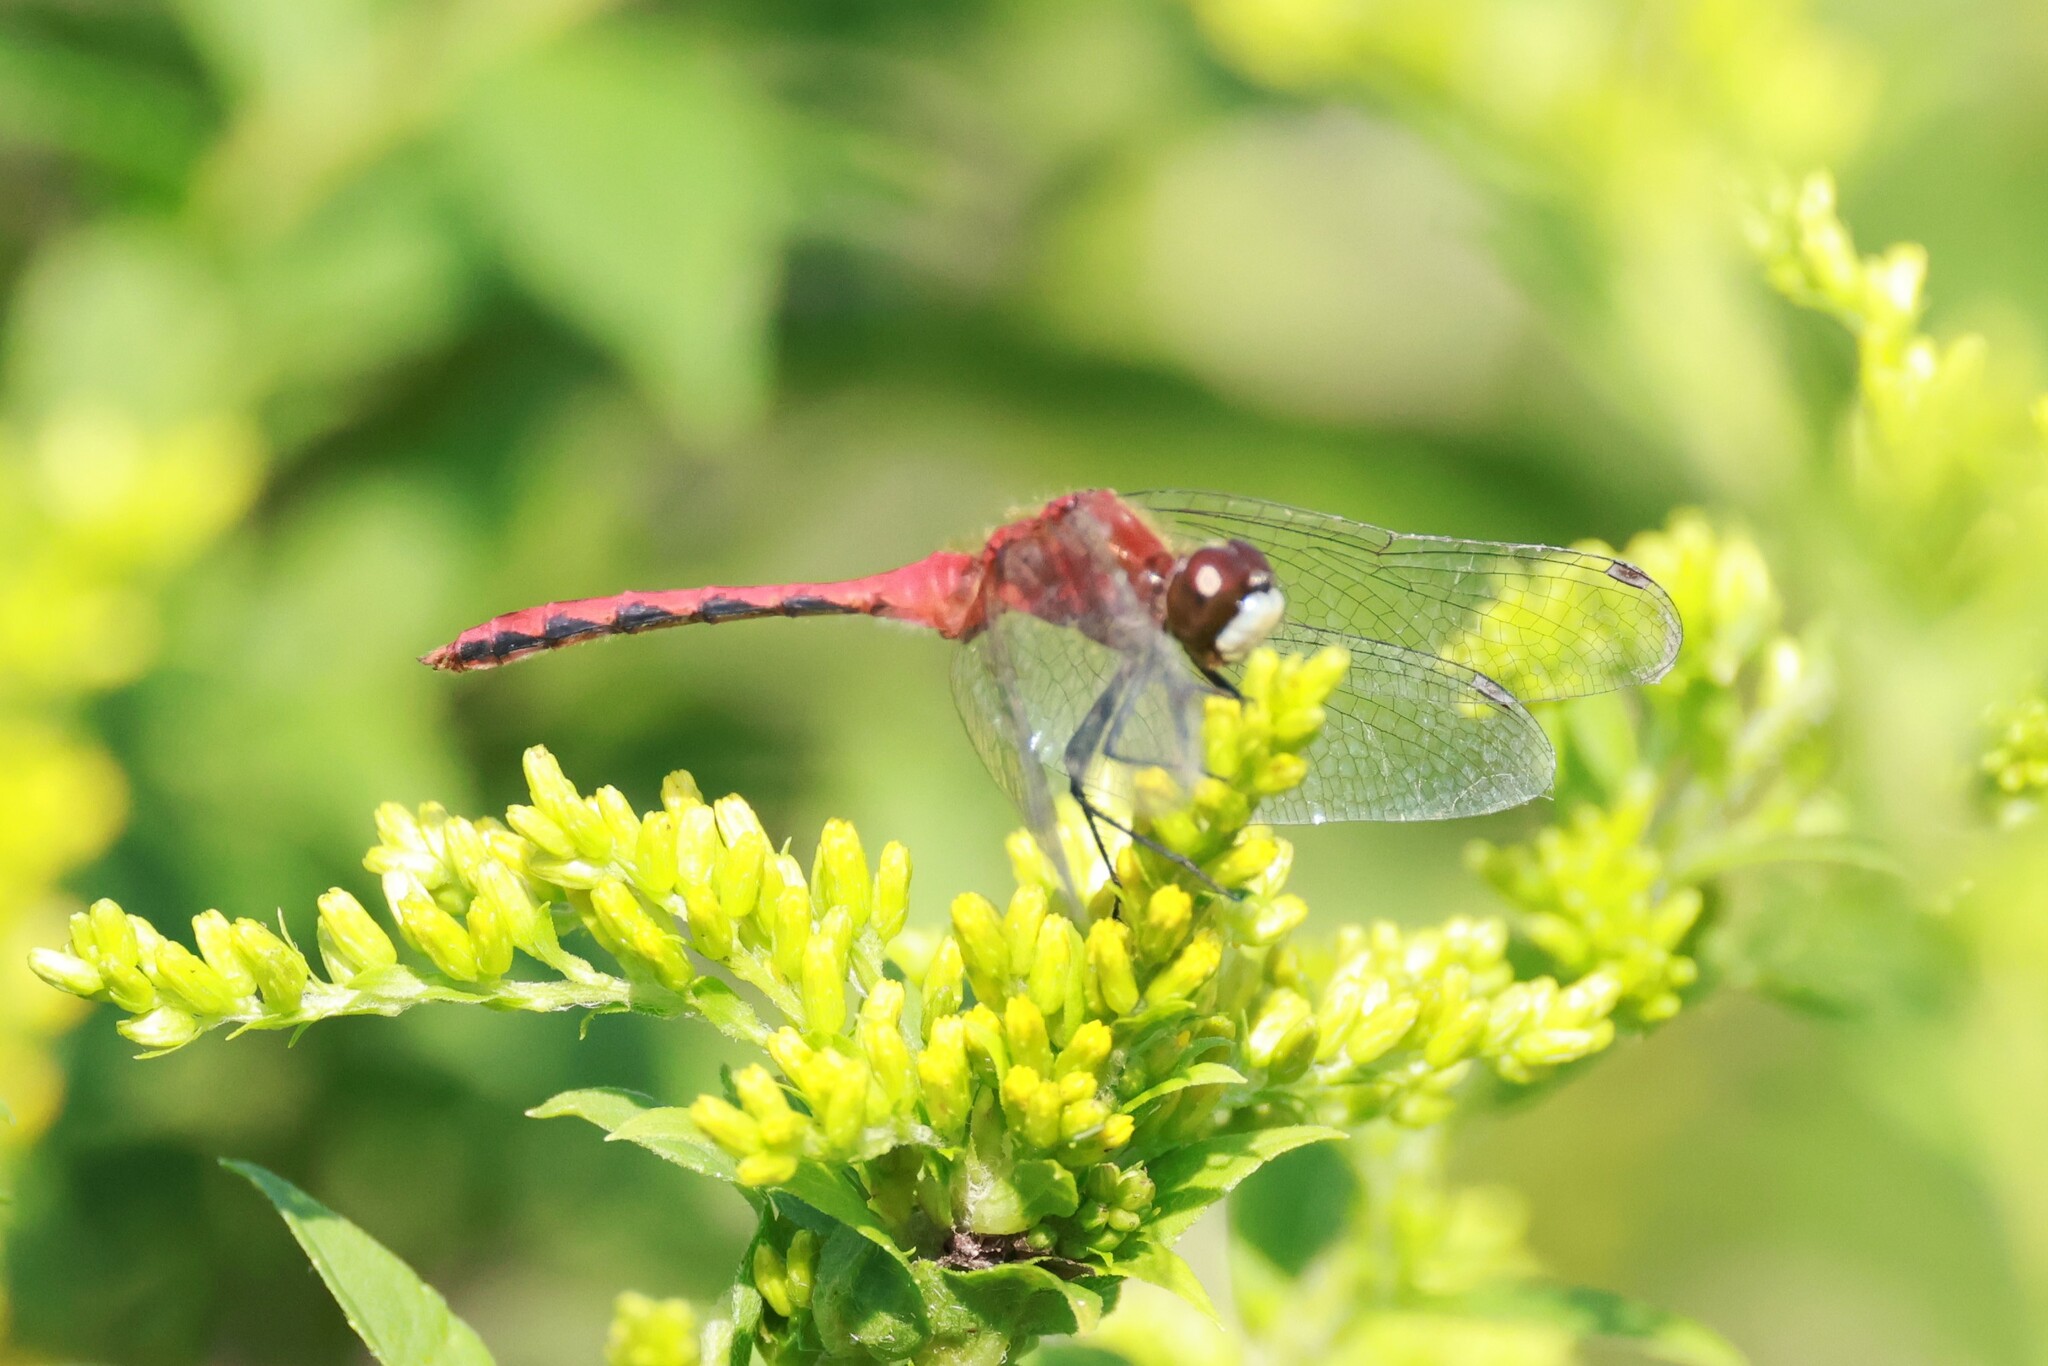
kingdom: Animalia
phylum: Arthropoda
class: Insecta
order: Odonata
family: Libellulidae
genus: Sympetrum
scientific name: Sympetrum obtrusum
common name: White-faced meadowhawk
